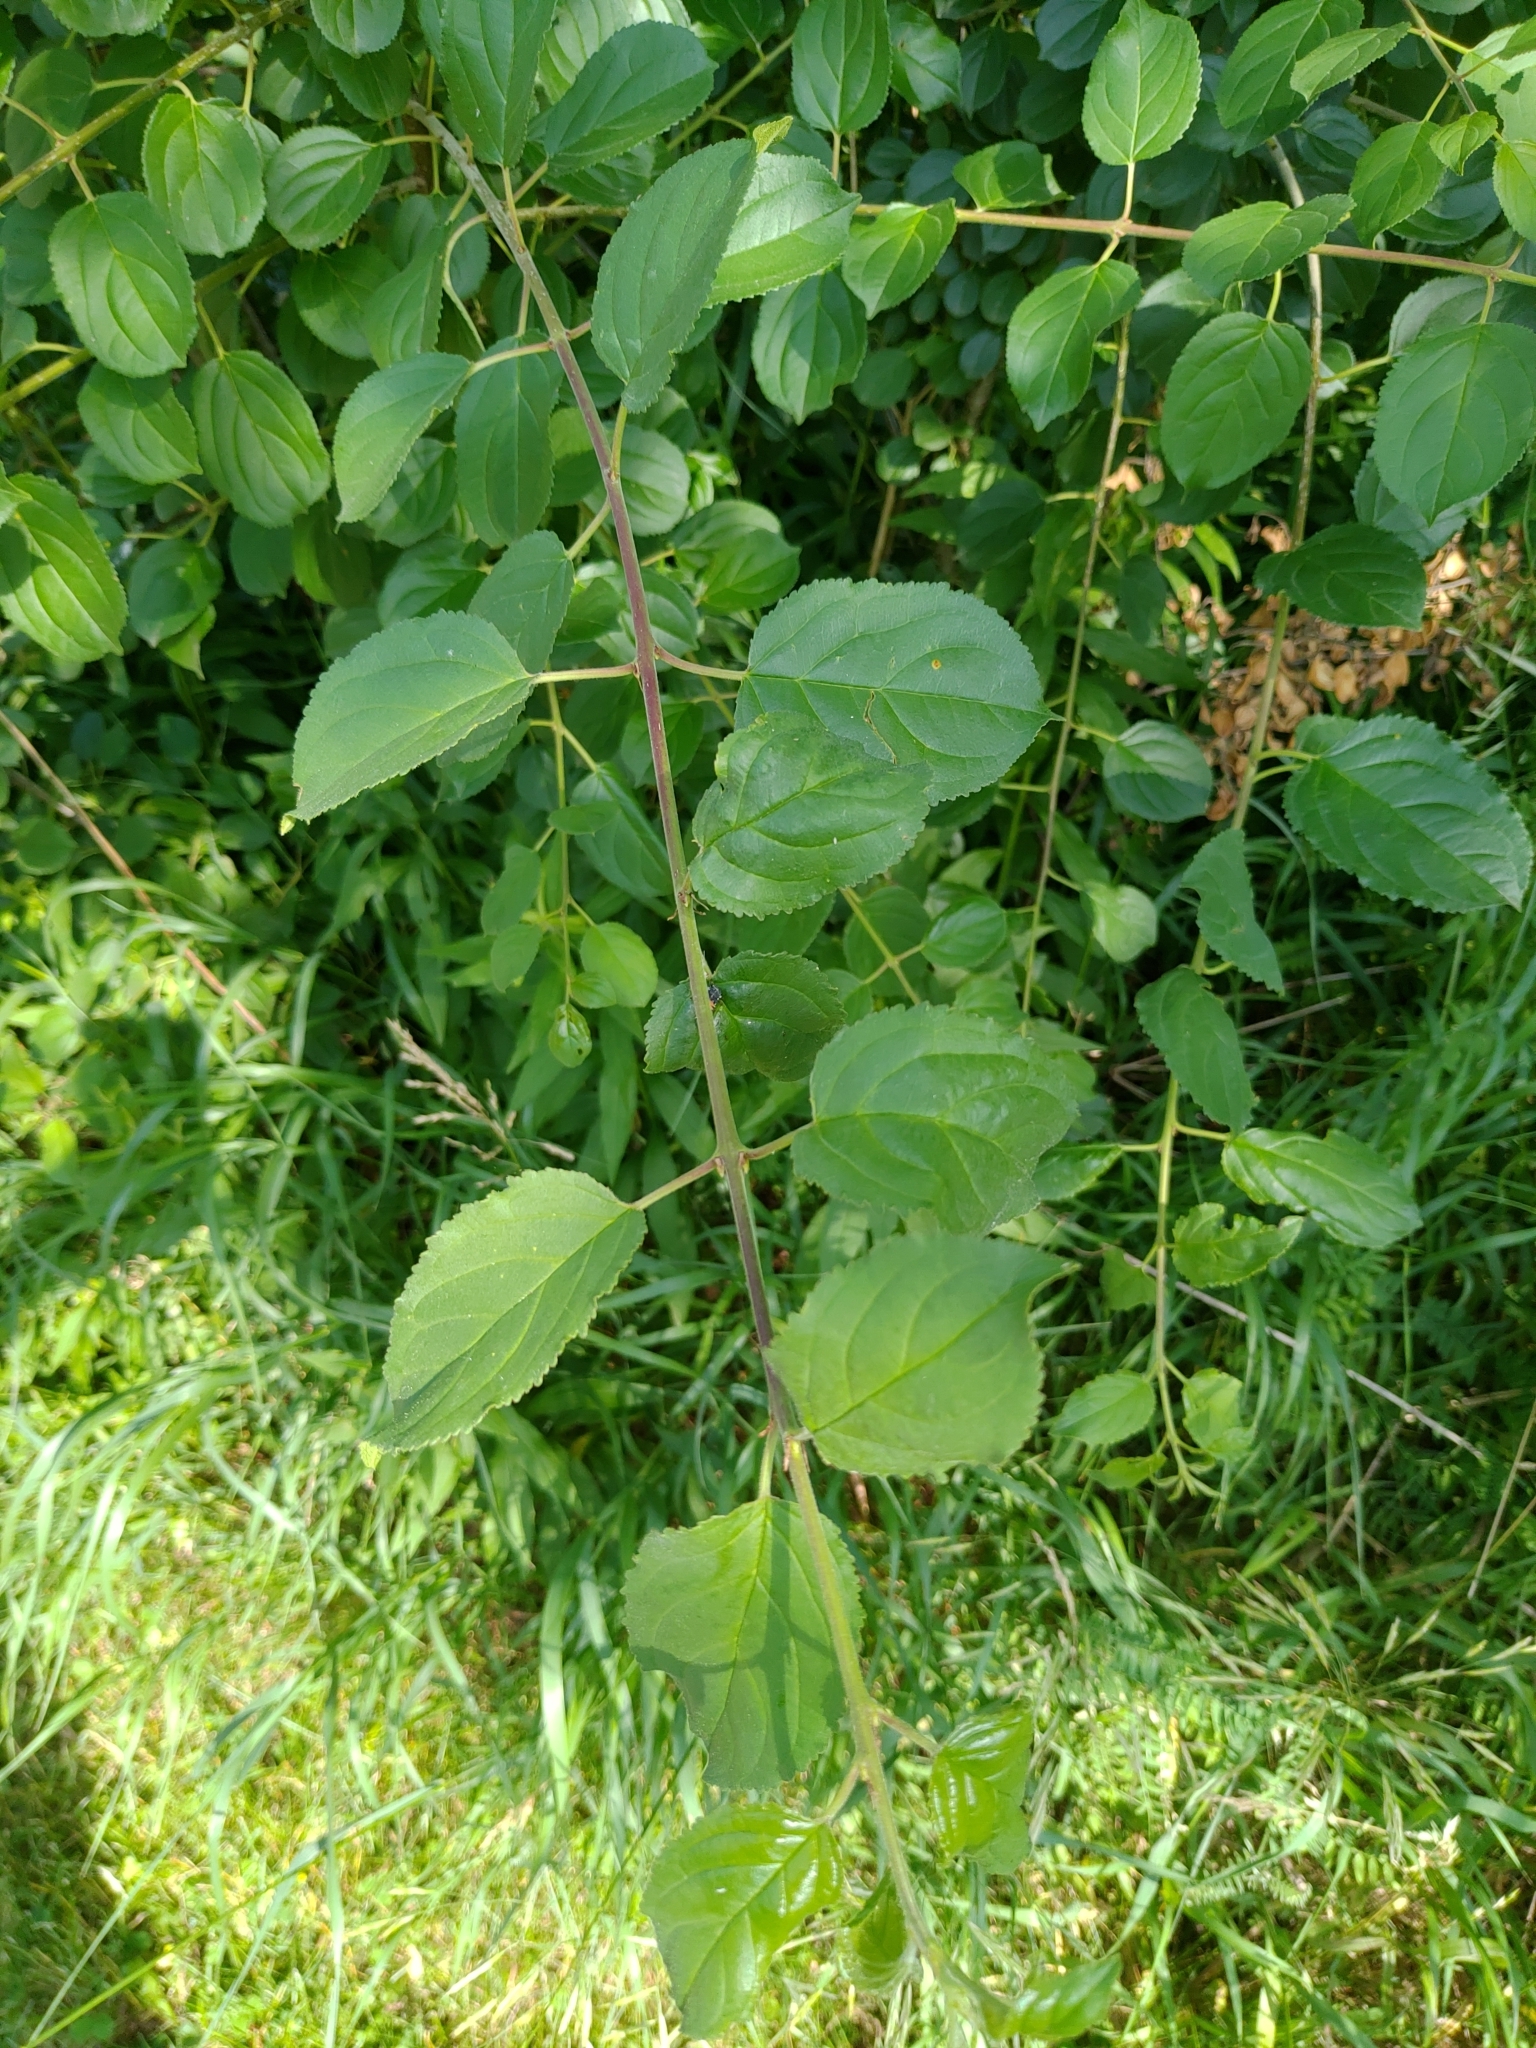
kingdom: Plantae
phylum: Tracheophyta
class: Magnoliopsida
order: Rosales
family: Rhamnaceae
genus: Rhamnus
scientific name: Rhamnus cathartica
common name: Common buckthorn
